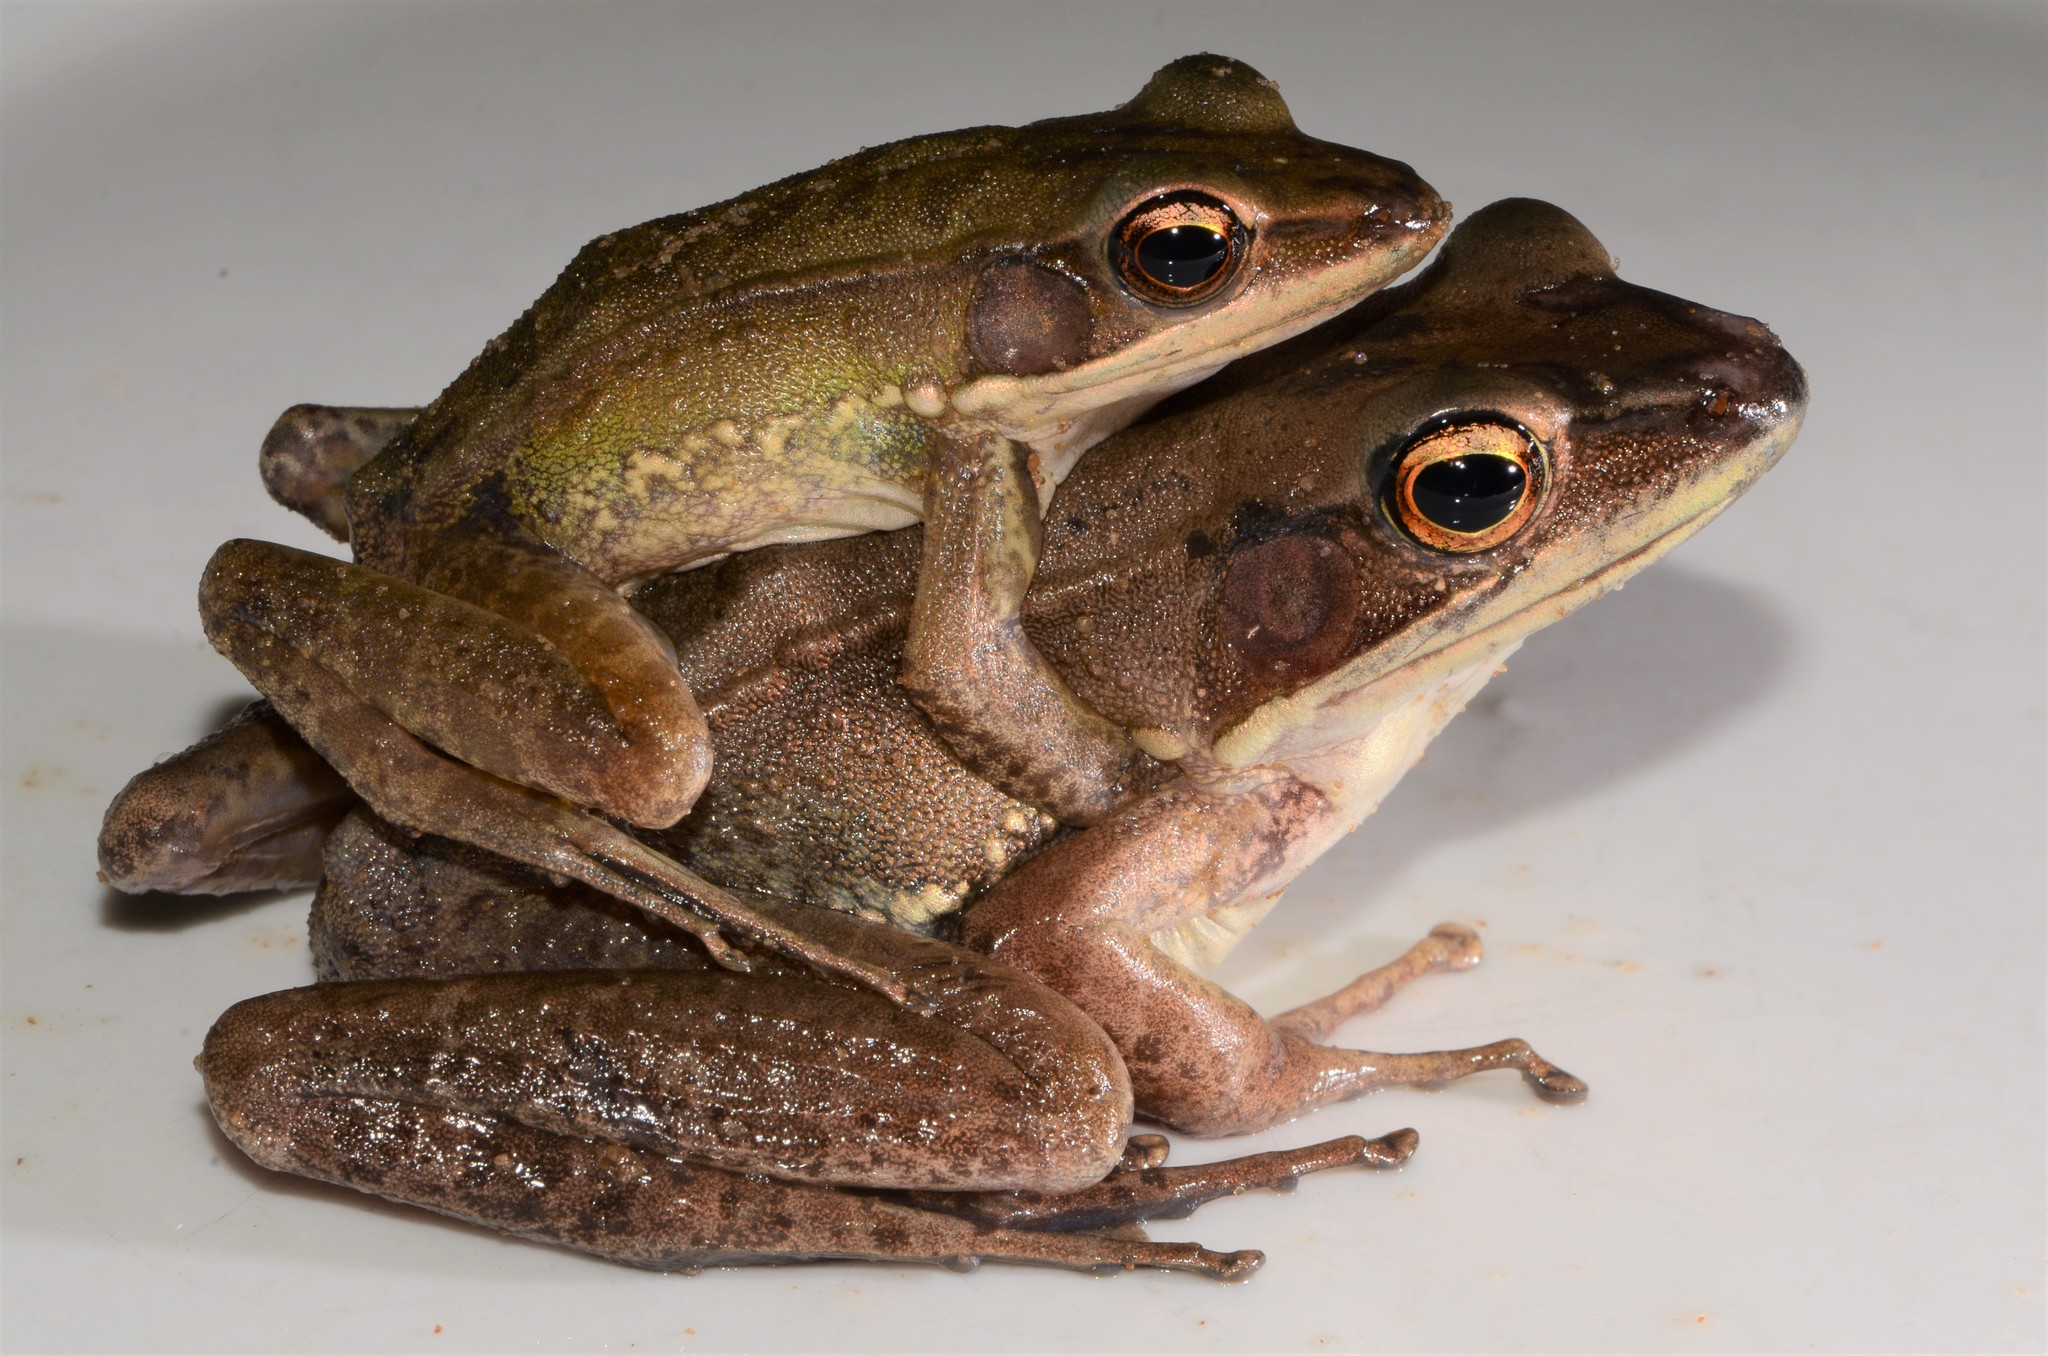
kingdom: Animalia
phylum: Chordata
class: Amphibia
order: Anura
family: Ranidae
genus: Amnirana
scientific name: Amnirana albolabris
